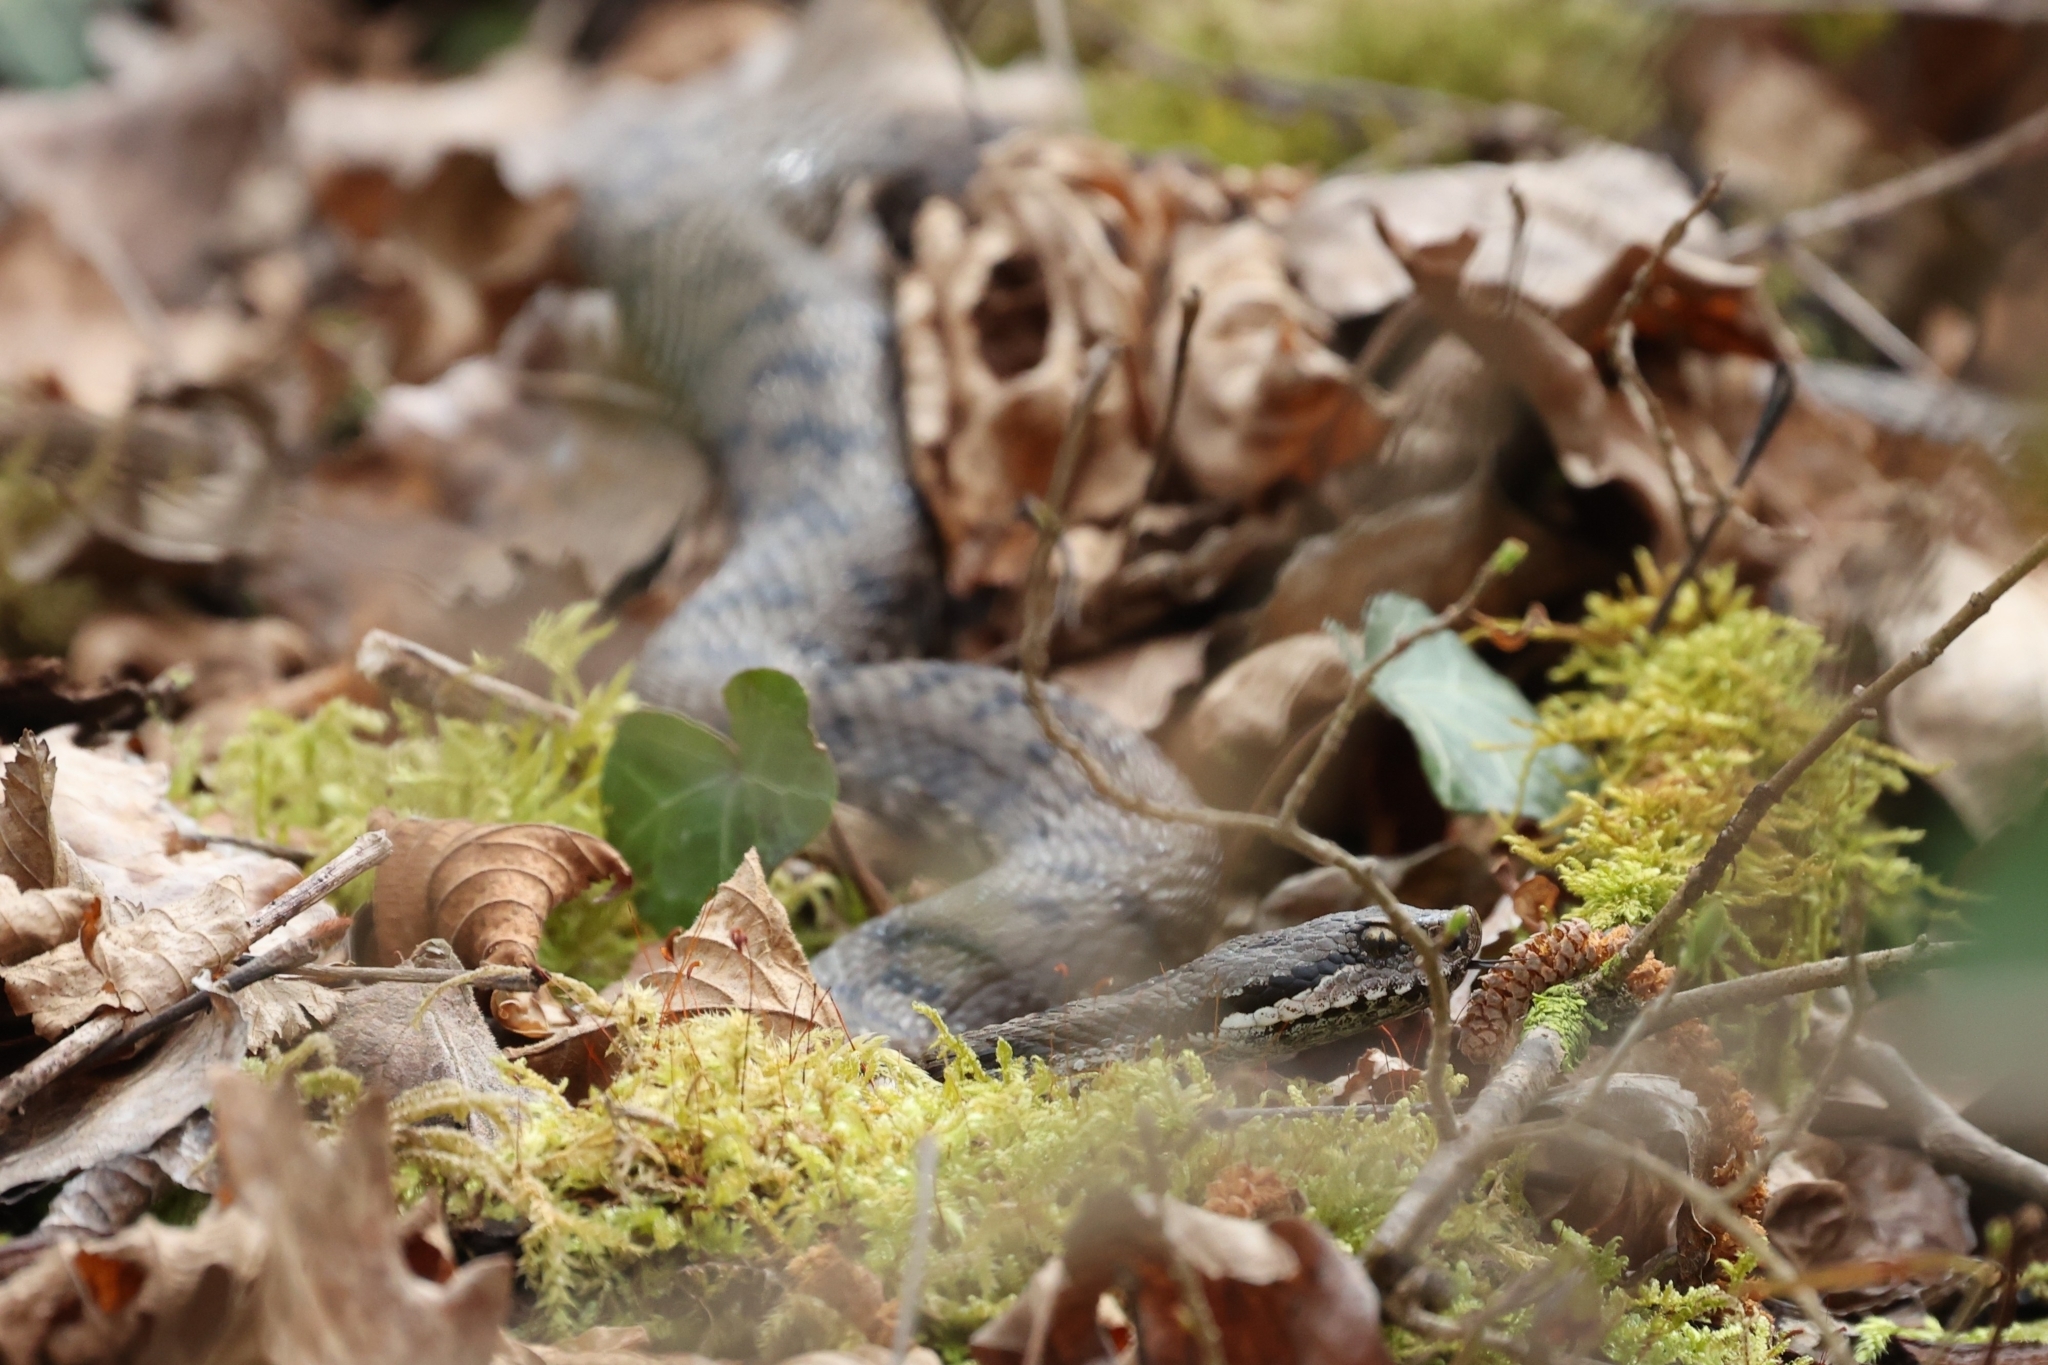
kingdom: Animalia
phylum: Chordata
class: Squamata
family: Viperidae
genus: Vipera
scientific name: Vipera aspis
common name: Asp viper
